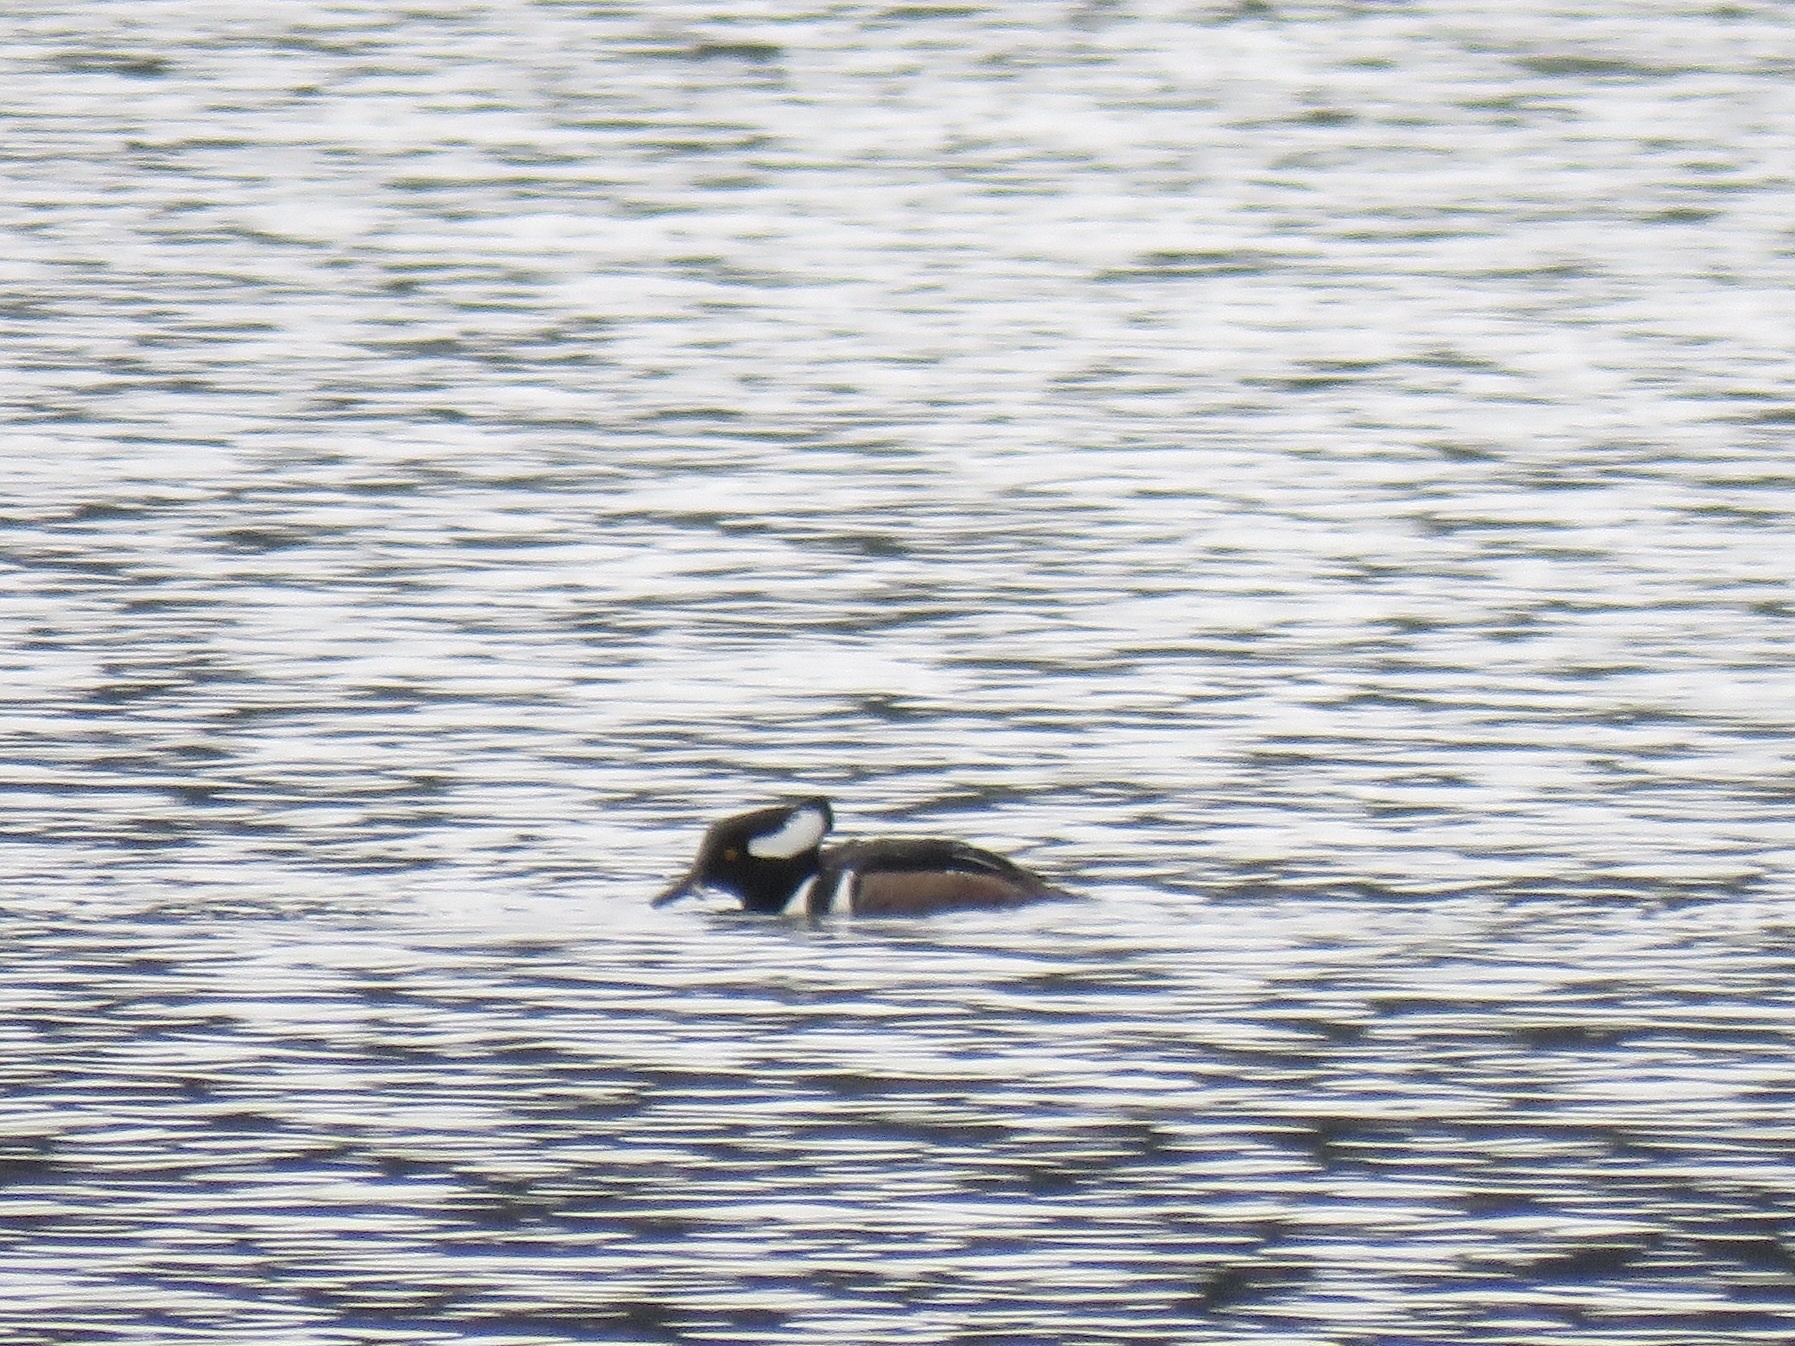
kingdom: Animalia
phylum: Chordata
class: Aves
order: Anseriformes
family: Anatidae
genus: Lophodytes
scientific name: Lophodytes cucullatus
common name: Hooded merganser
